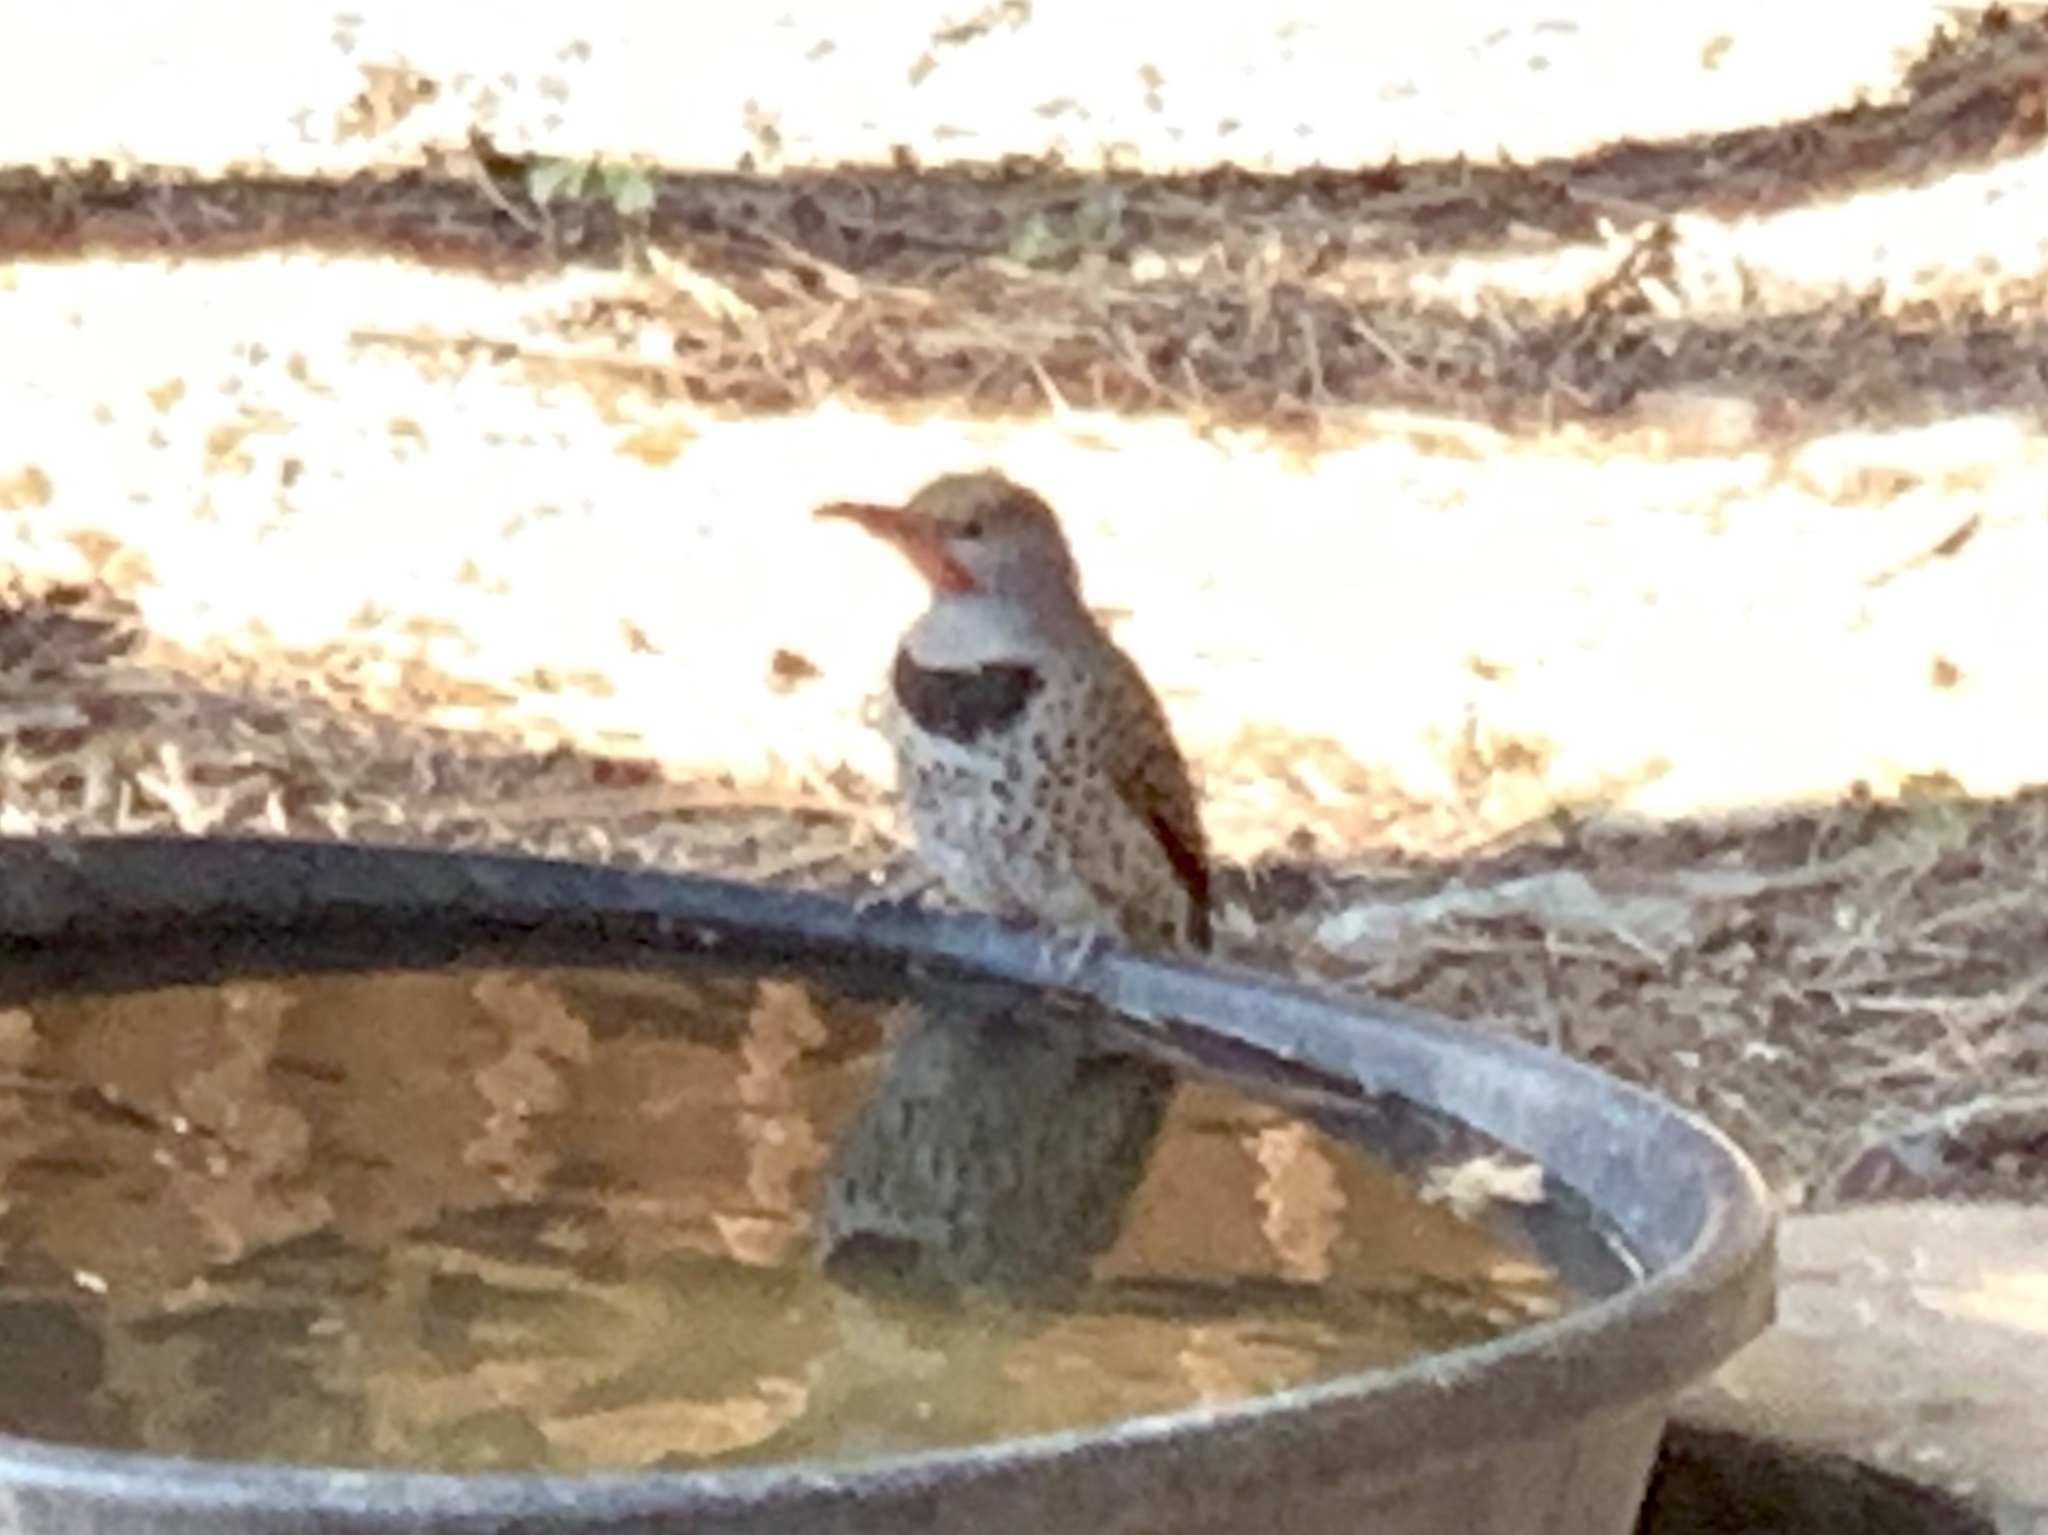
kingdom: Animalia
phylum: Chordata
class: Aves
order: Piciformes
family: Picidae
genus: Colaptes
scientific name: Colaptes auratus
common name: Northern flicker
